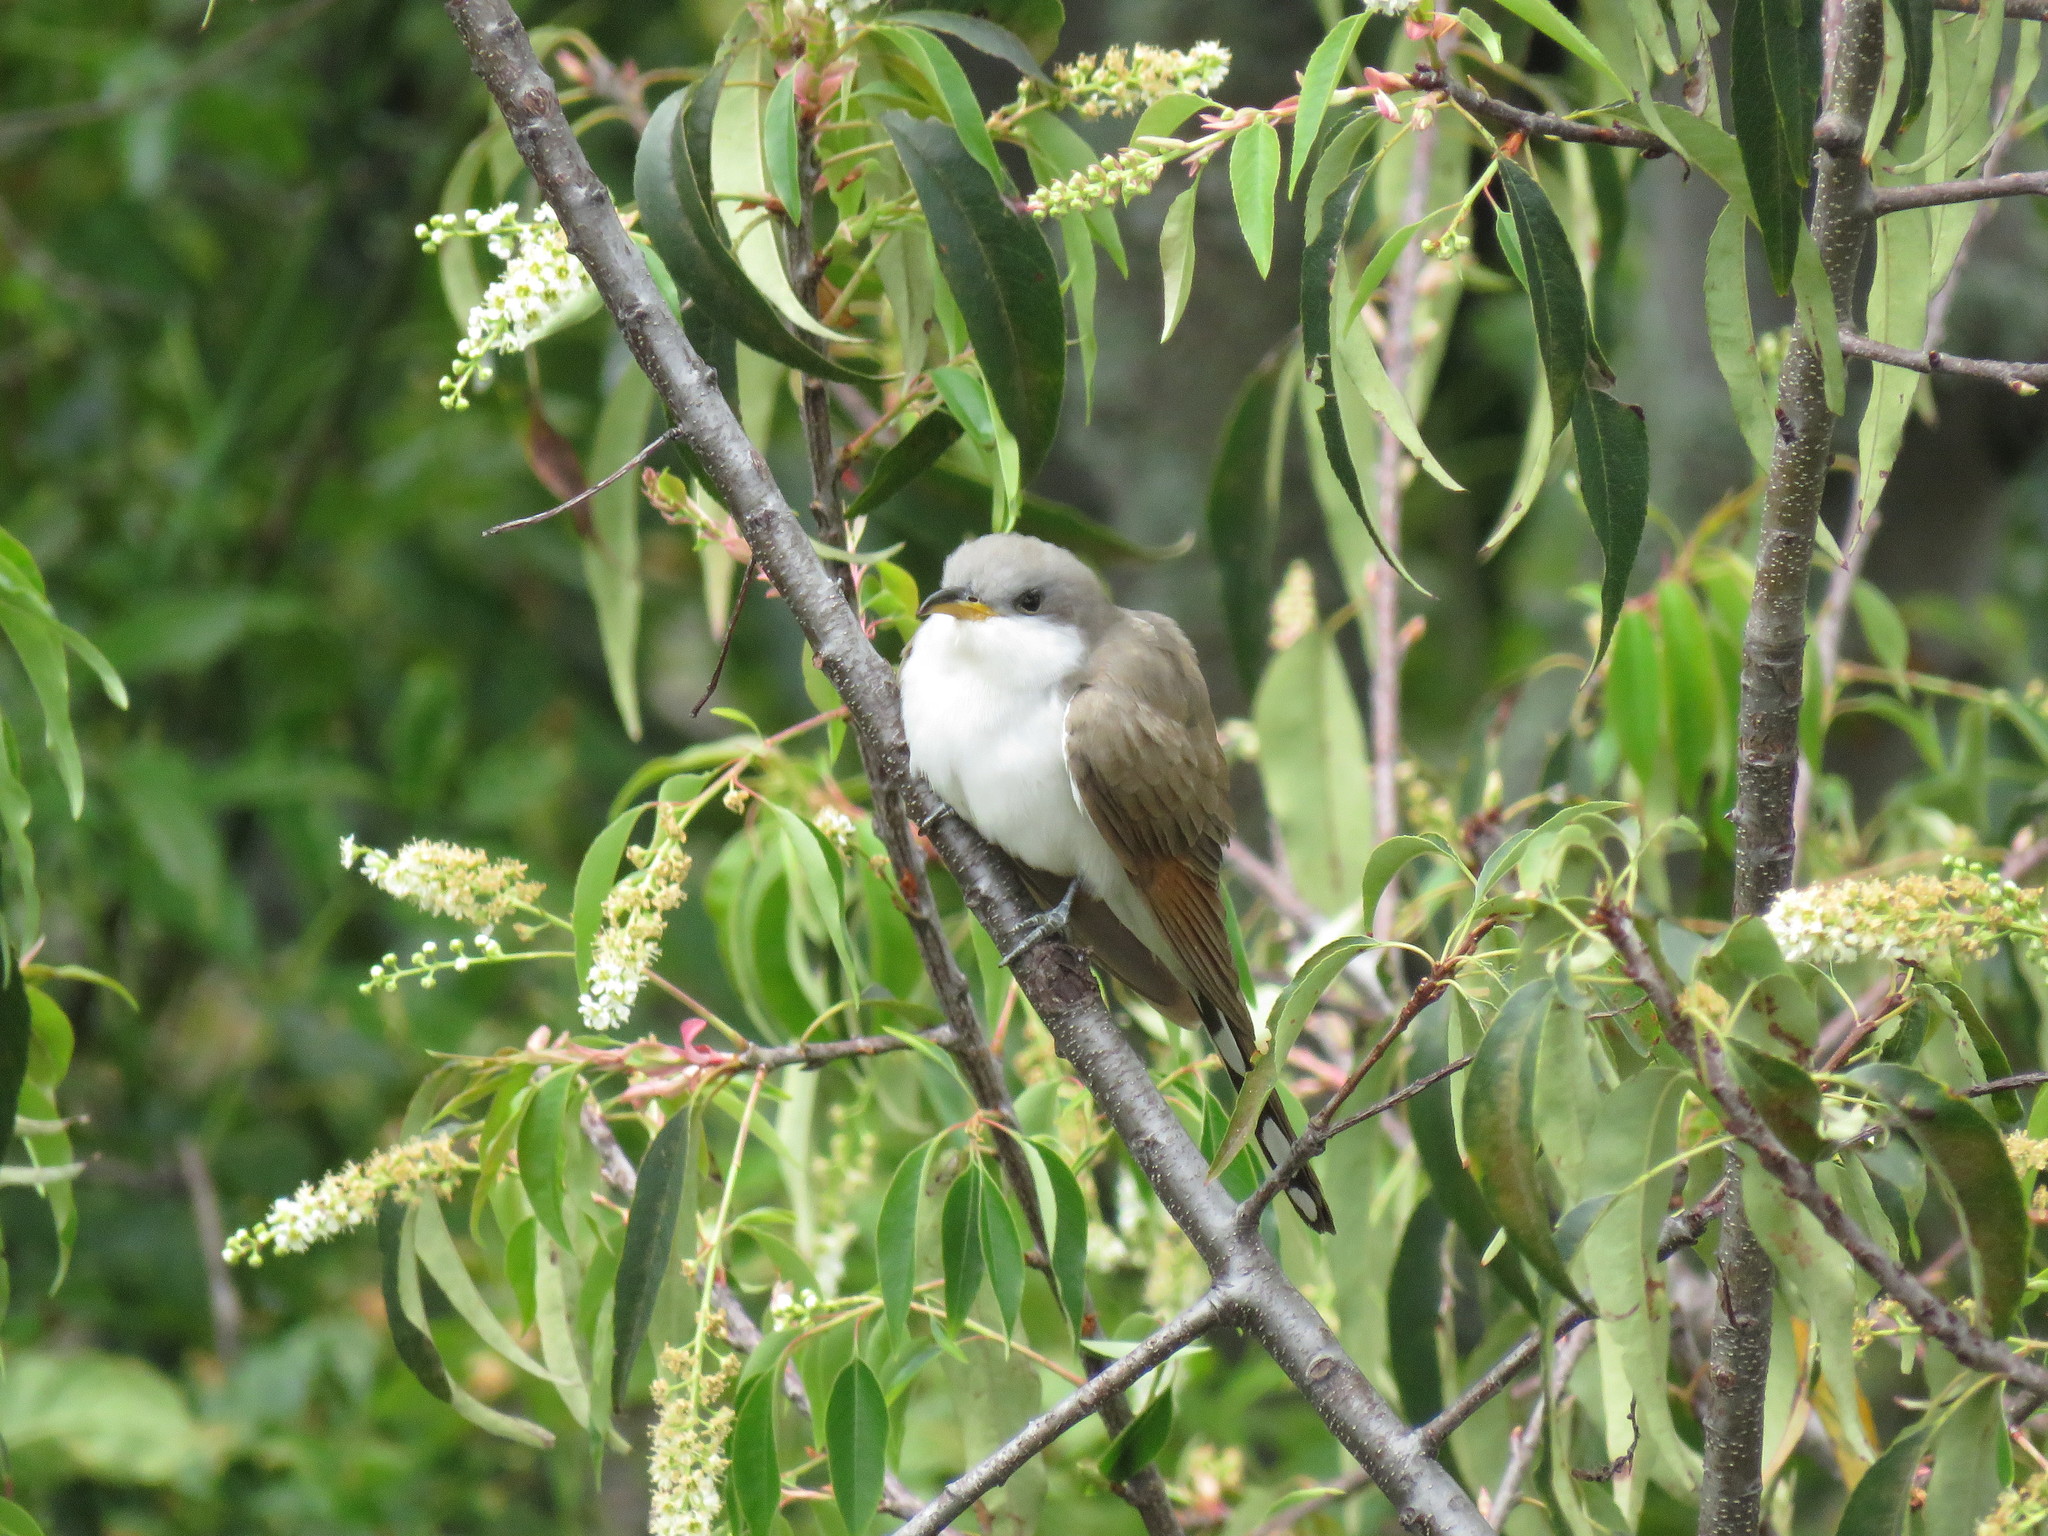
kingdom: Animalia
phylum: Chordata
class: Aves
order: Cuculiformes
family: Cuculidae
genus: Coccyzus
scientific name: Coccyzus americanus
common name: Yellow-billed cuckoo
